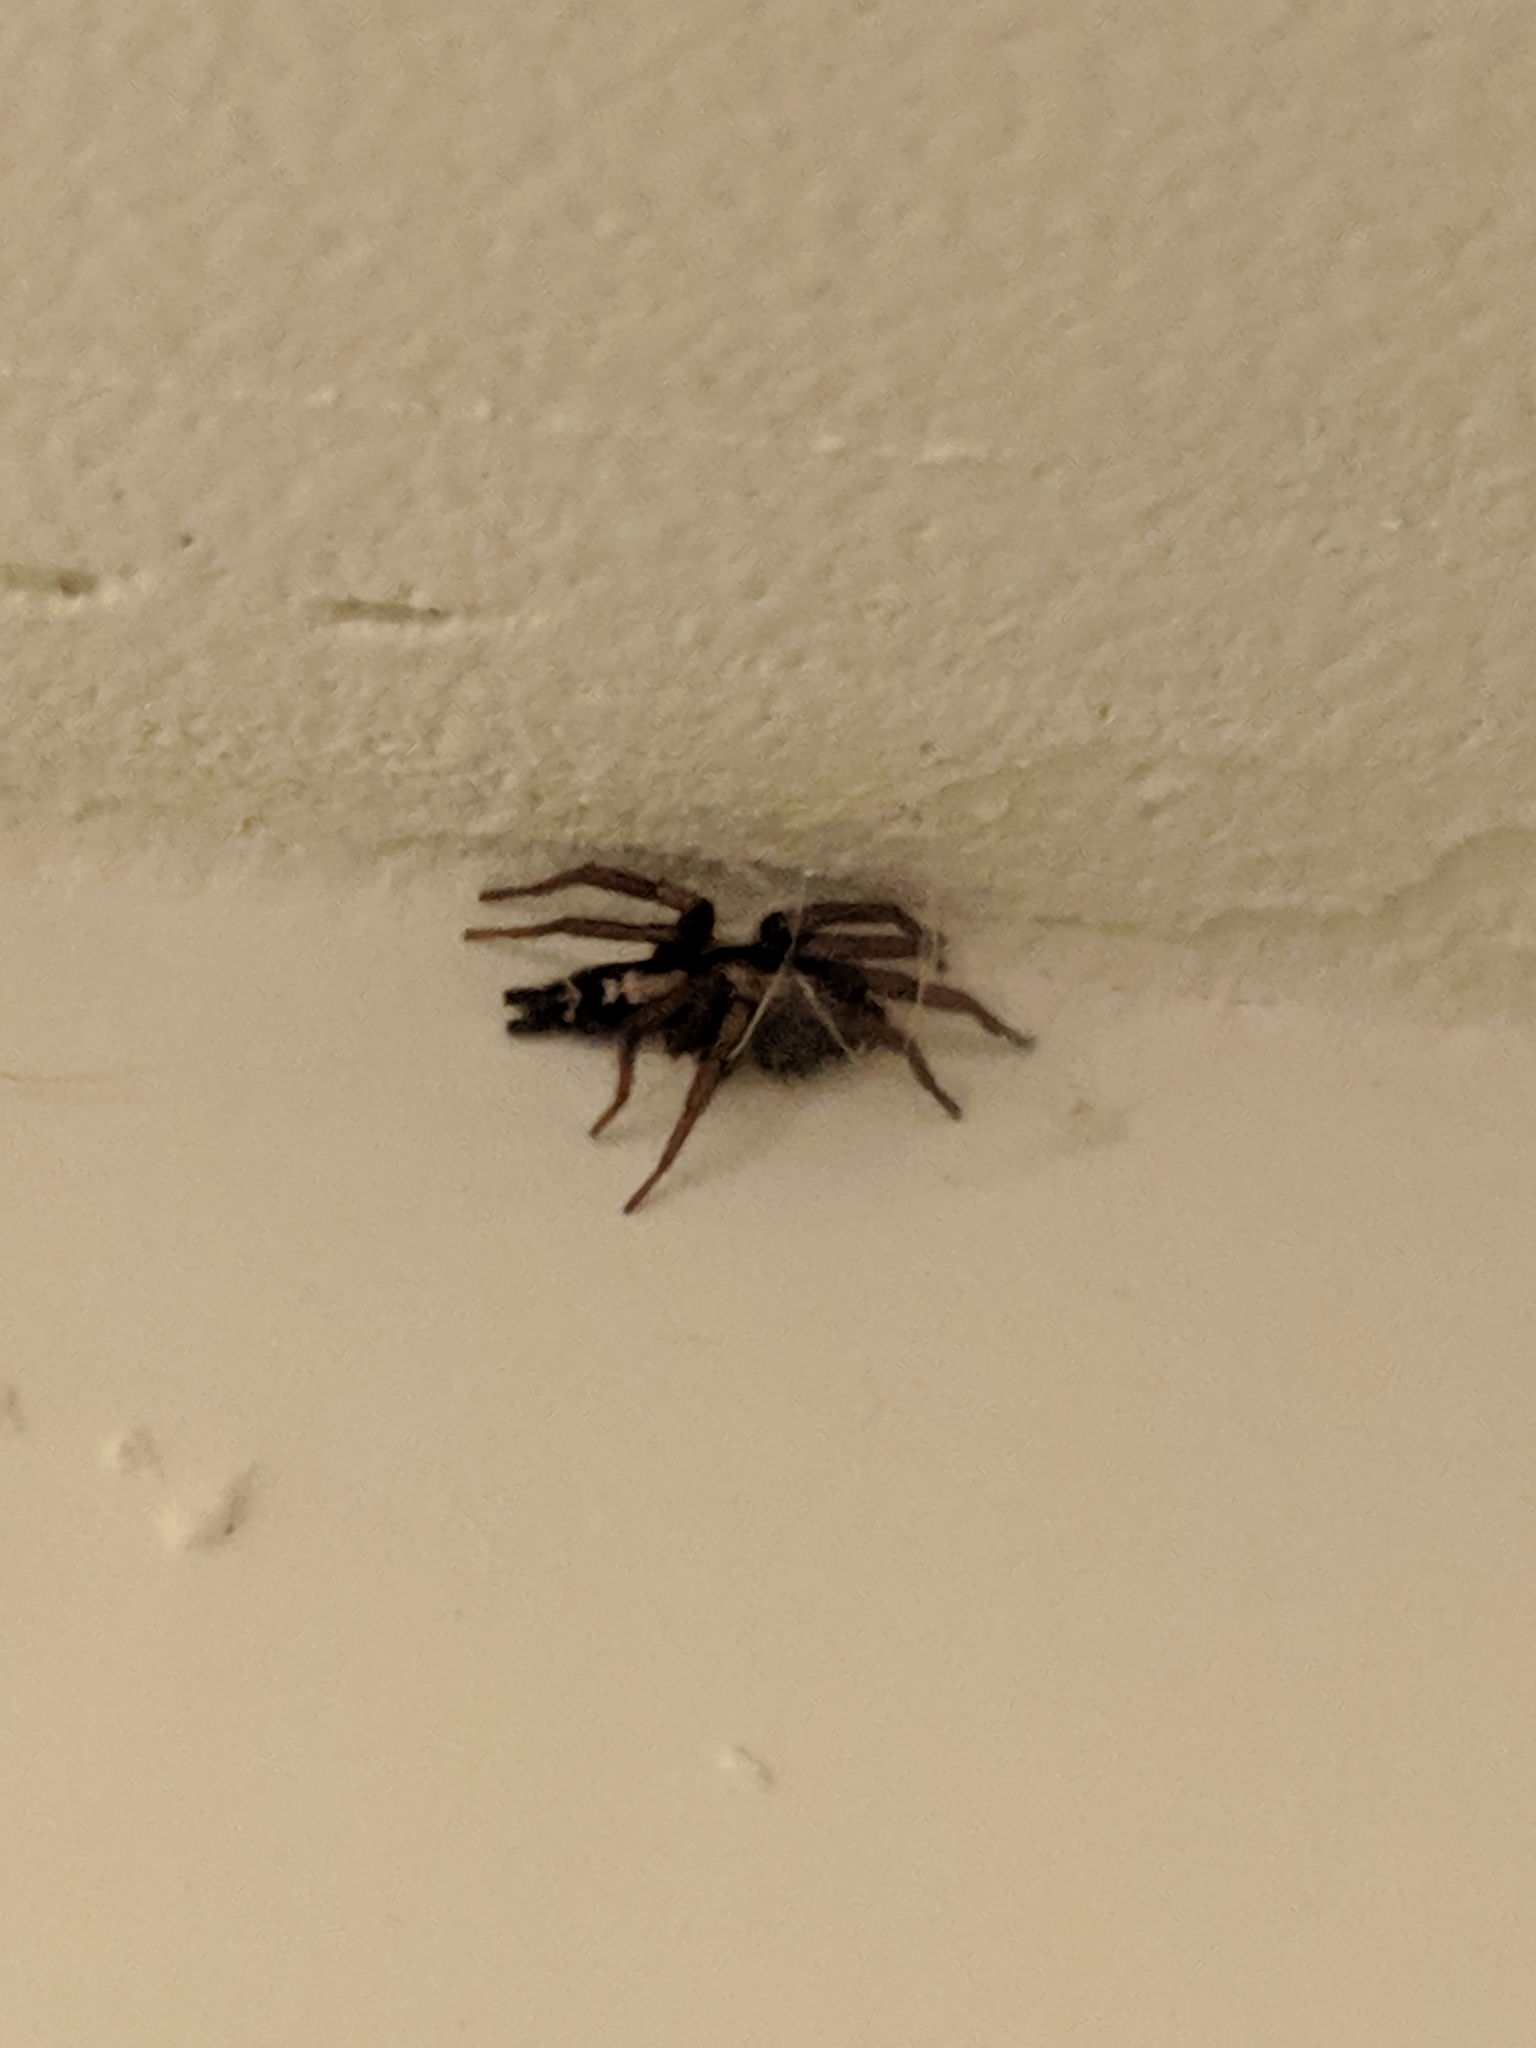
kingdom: Animalia
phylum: Arthropoda
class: Arachnida
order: Araneae
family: Gnaphosidae
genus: Herpyllus
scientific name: Herpyllus ecclesiasticus
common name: Eastern parson spider
